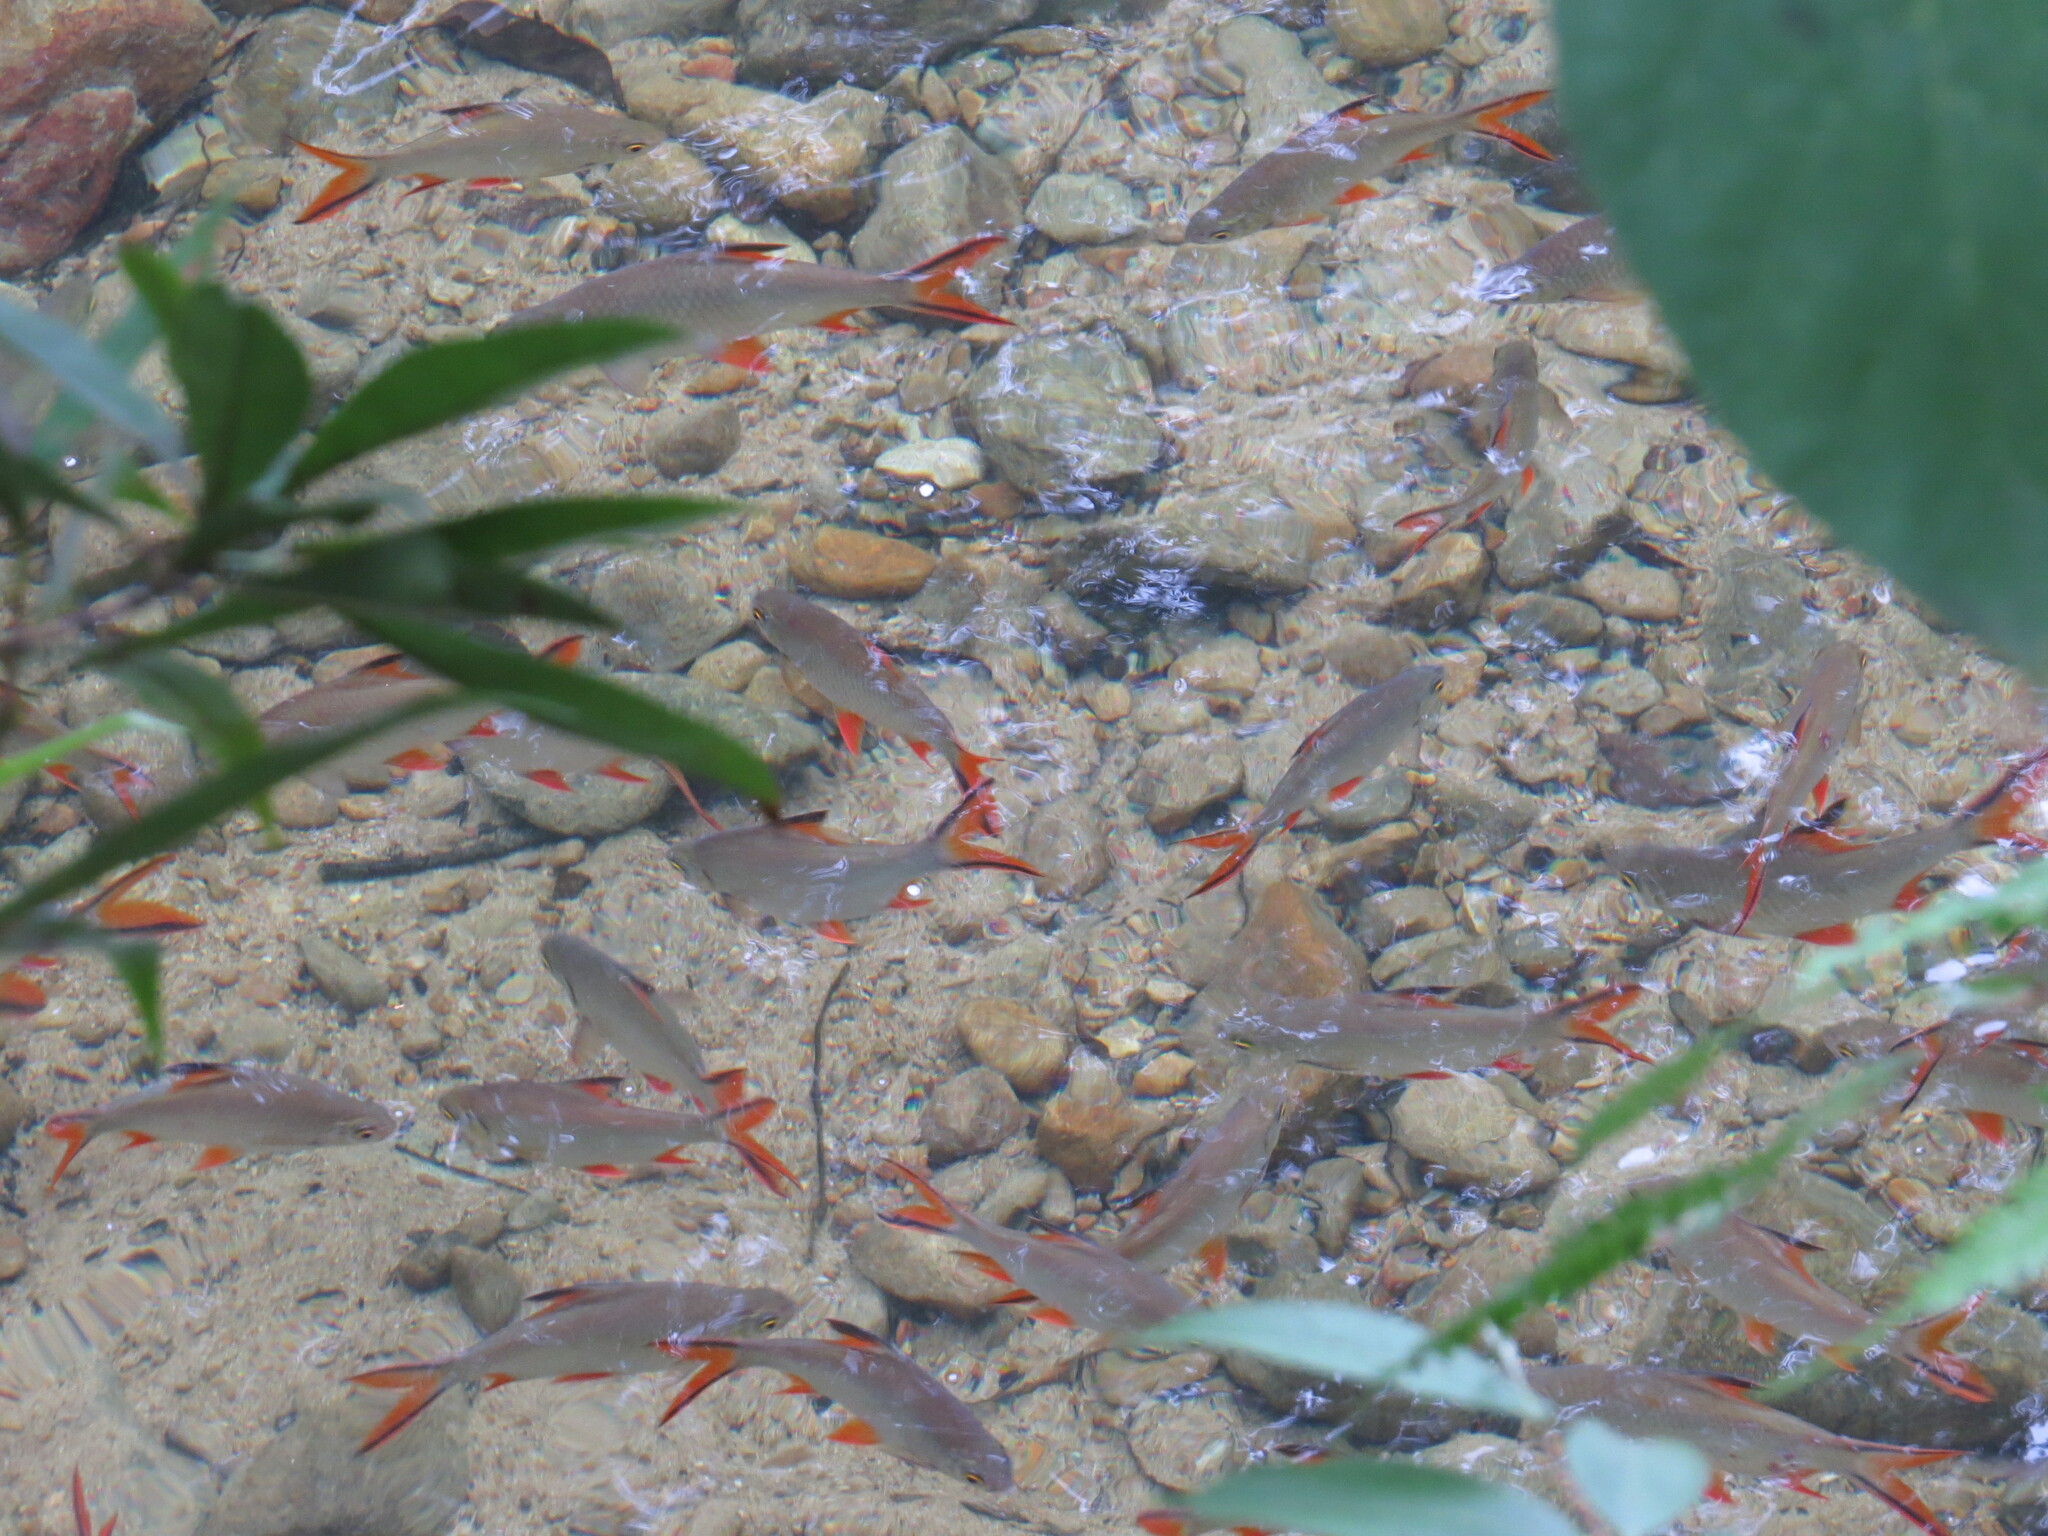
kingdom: Animalia
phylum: Chordata
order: Cypriniformes
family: Cyprinidae
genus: Barbonymus
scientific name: Barbonymus schwanefeldii
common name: Tinfoil barb
